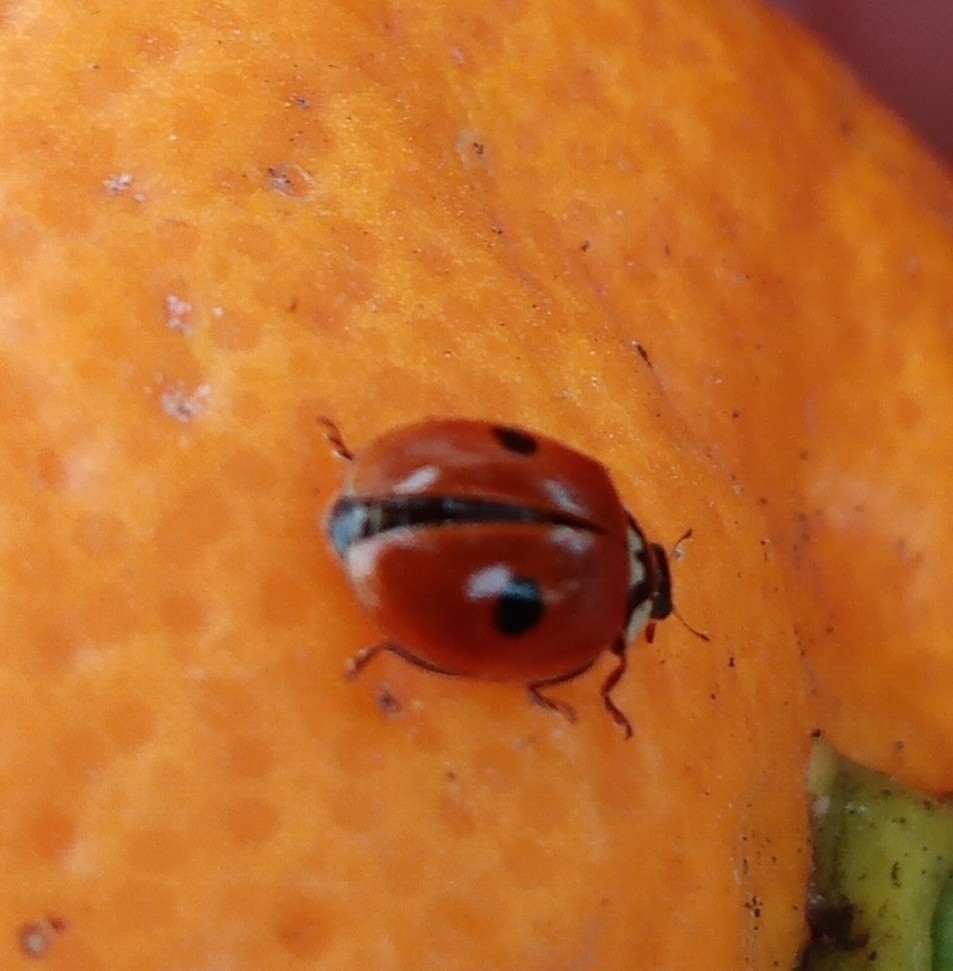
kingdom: Animalia
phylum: Arthropoda
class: Insecta
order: Coleoptera
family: Coccinellidae
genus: Adalia
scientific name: Adalia bipunctata
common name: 2-spot ladybird
